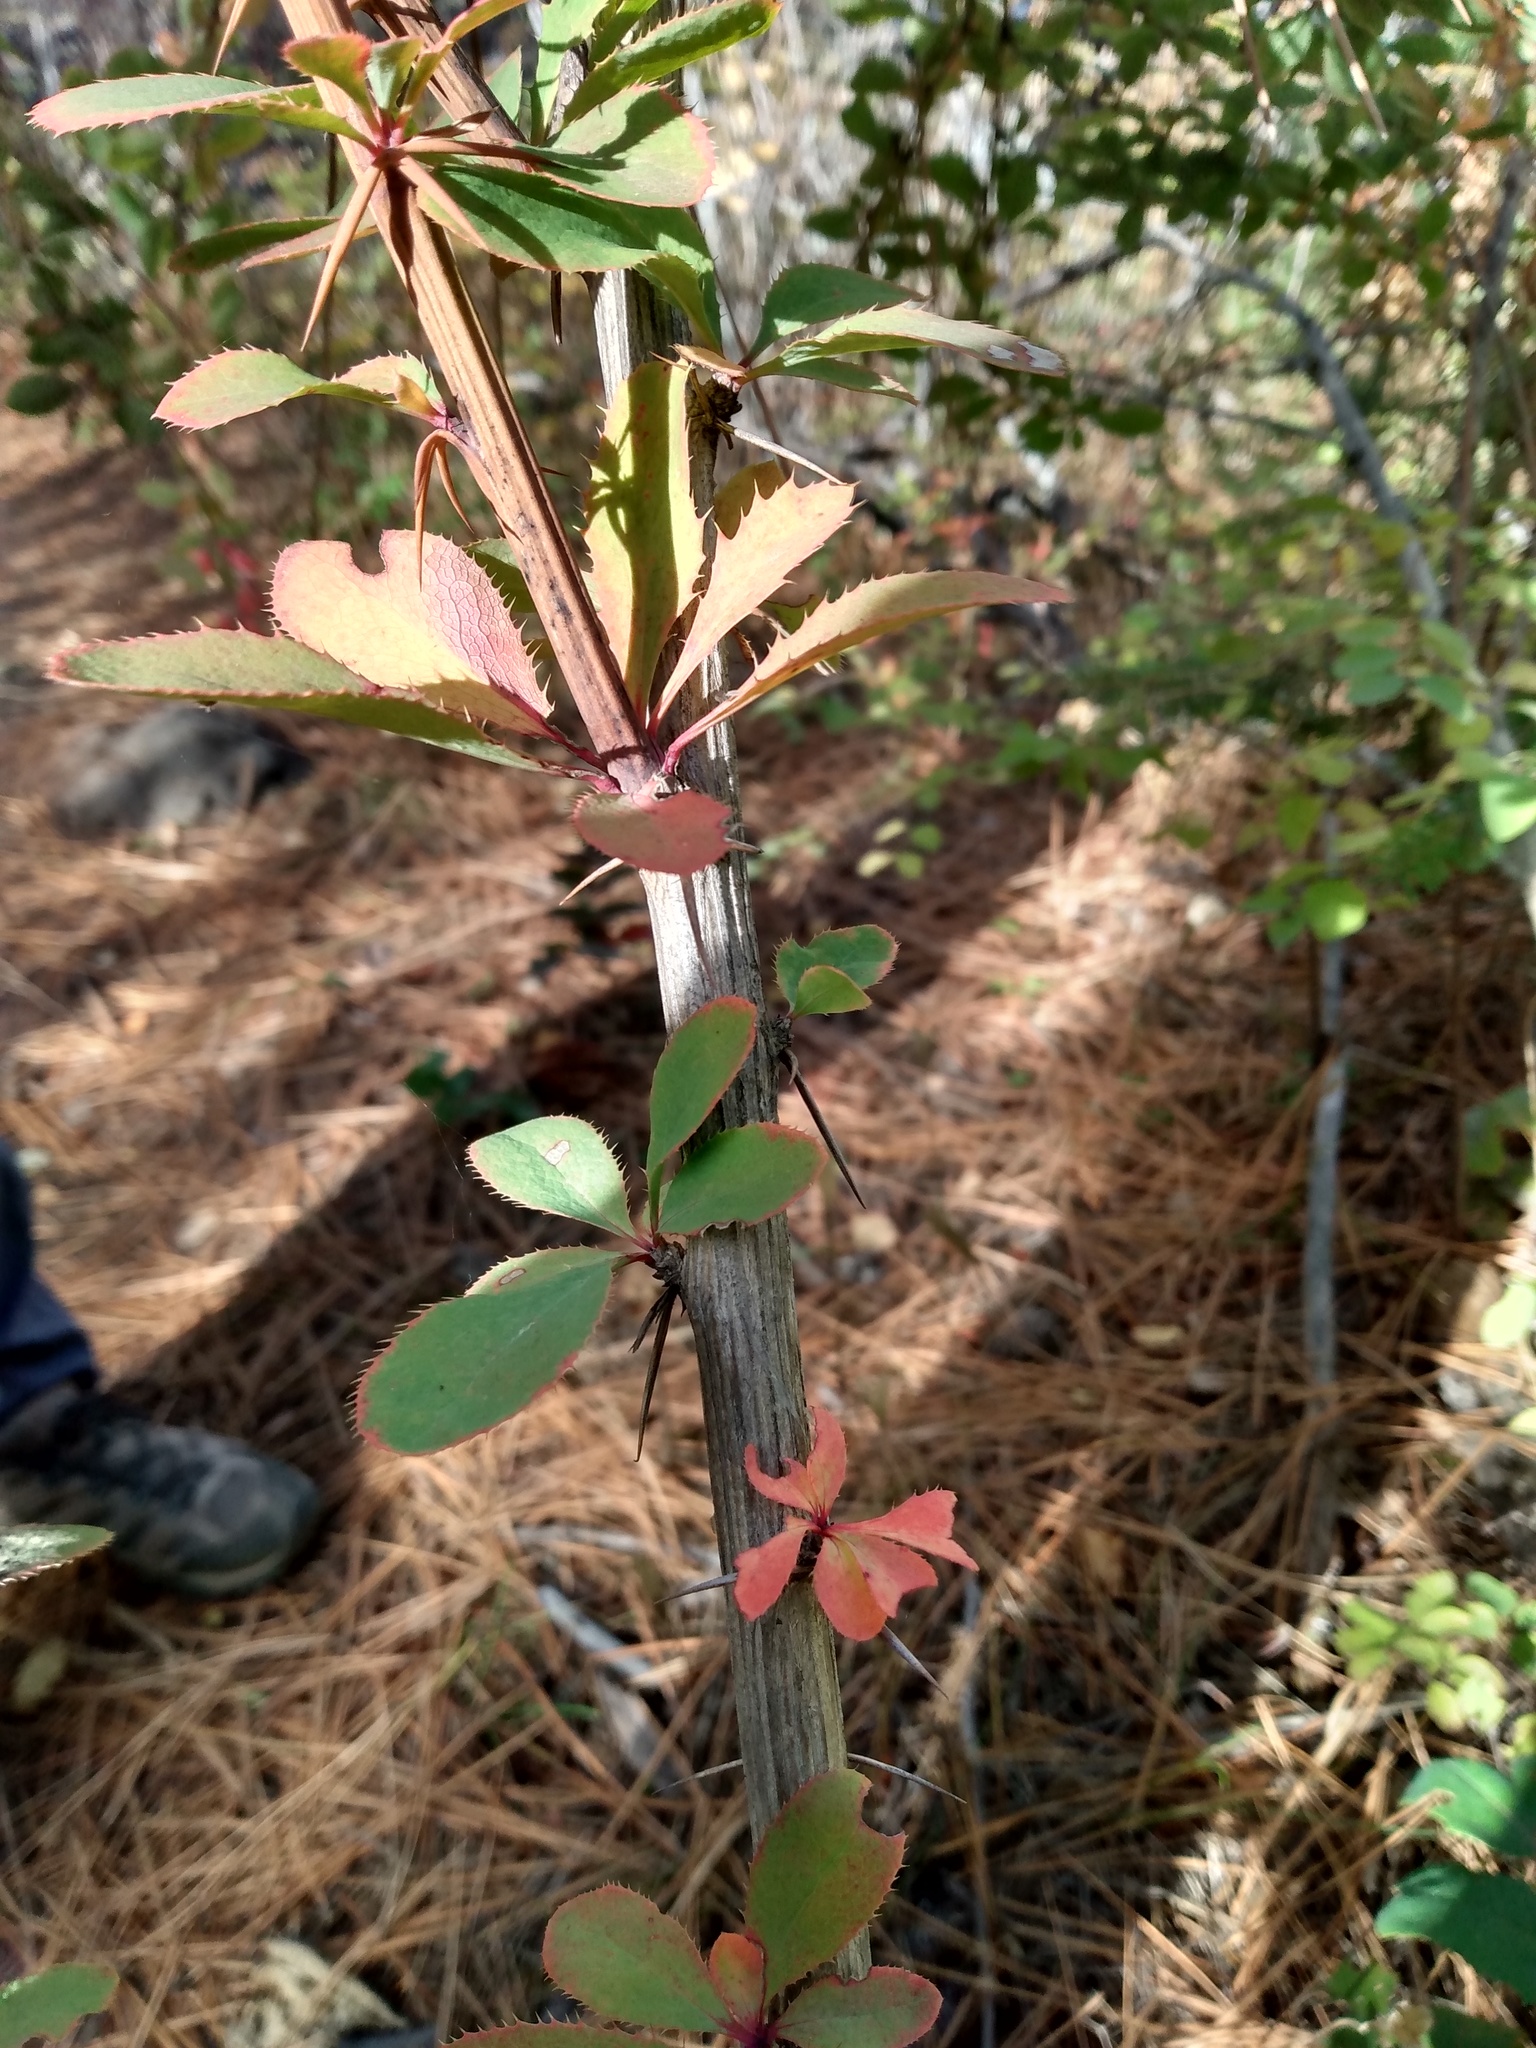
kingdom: Plantae
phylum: Tracheophyta
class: Magnoliopsida
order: Ranunculales
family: Berberidaceae
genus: Berberis
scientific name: Berberis vulgaris
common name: Barberry
